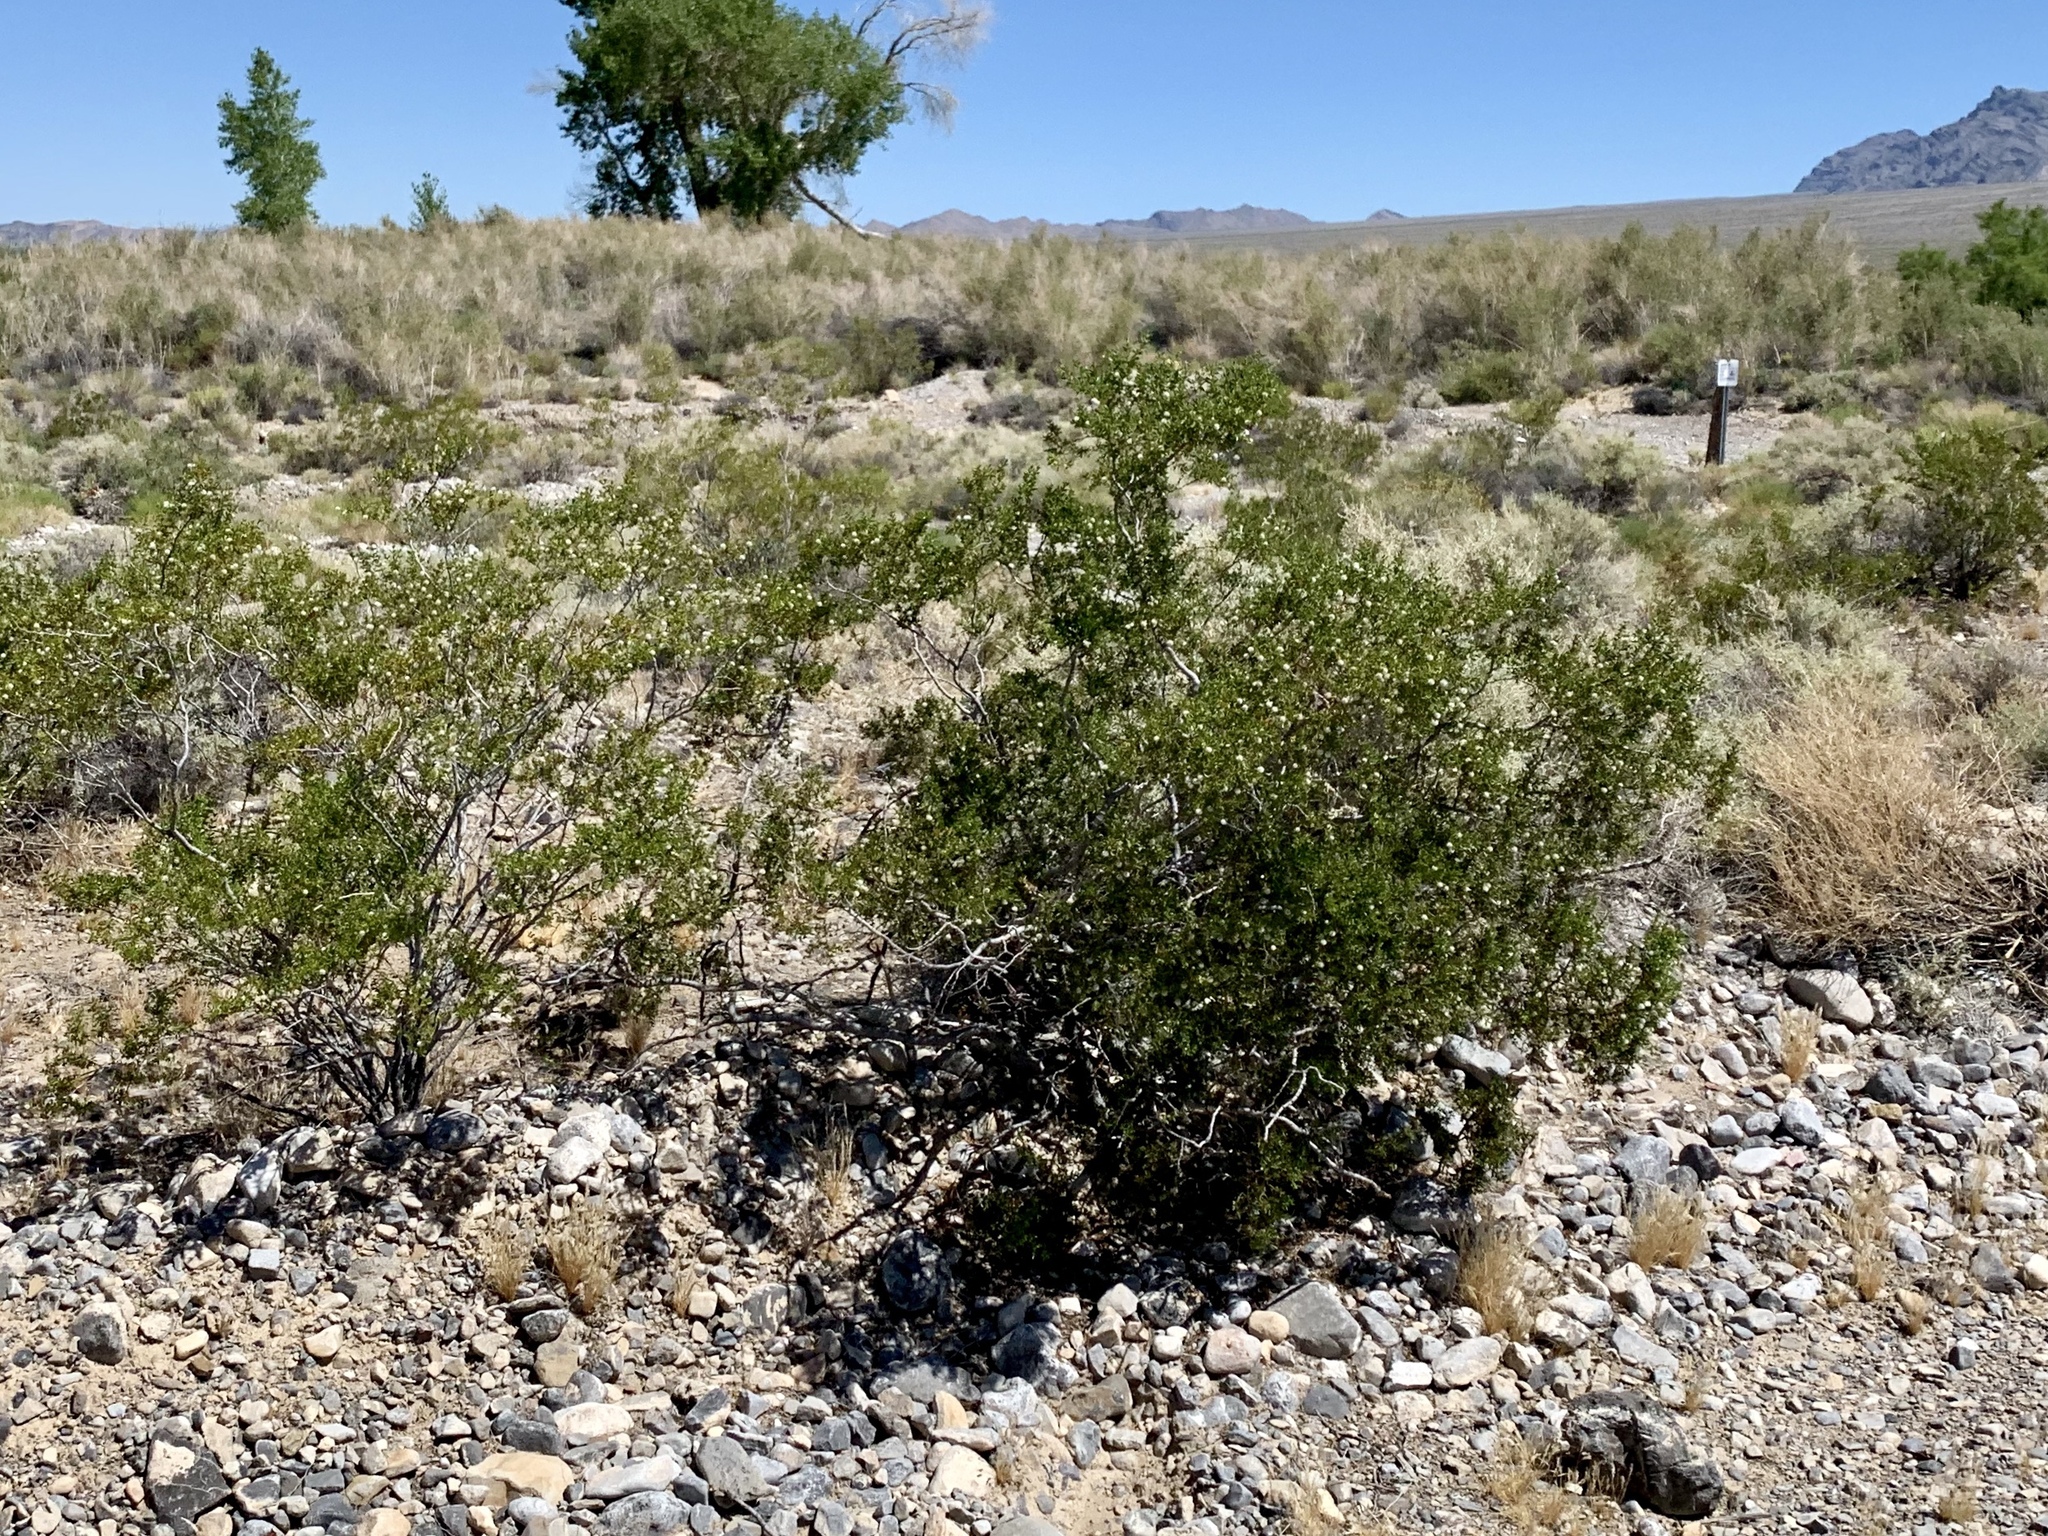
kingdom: Plantae
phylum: Tracheophyta
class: Magnoliopsida
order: Zygophyllales
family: Zygophyllaceae
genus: Larrea
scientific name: Larrea tridentata
